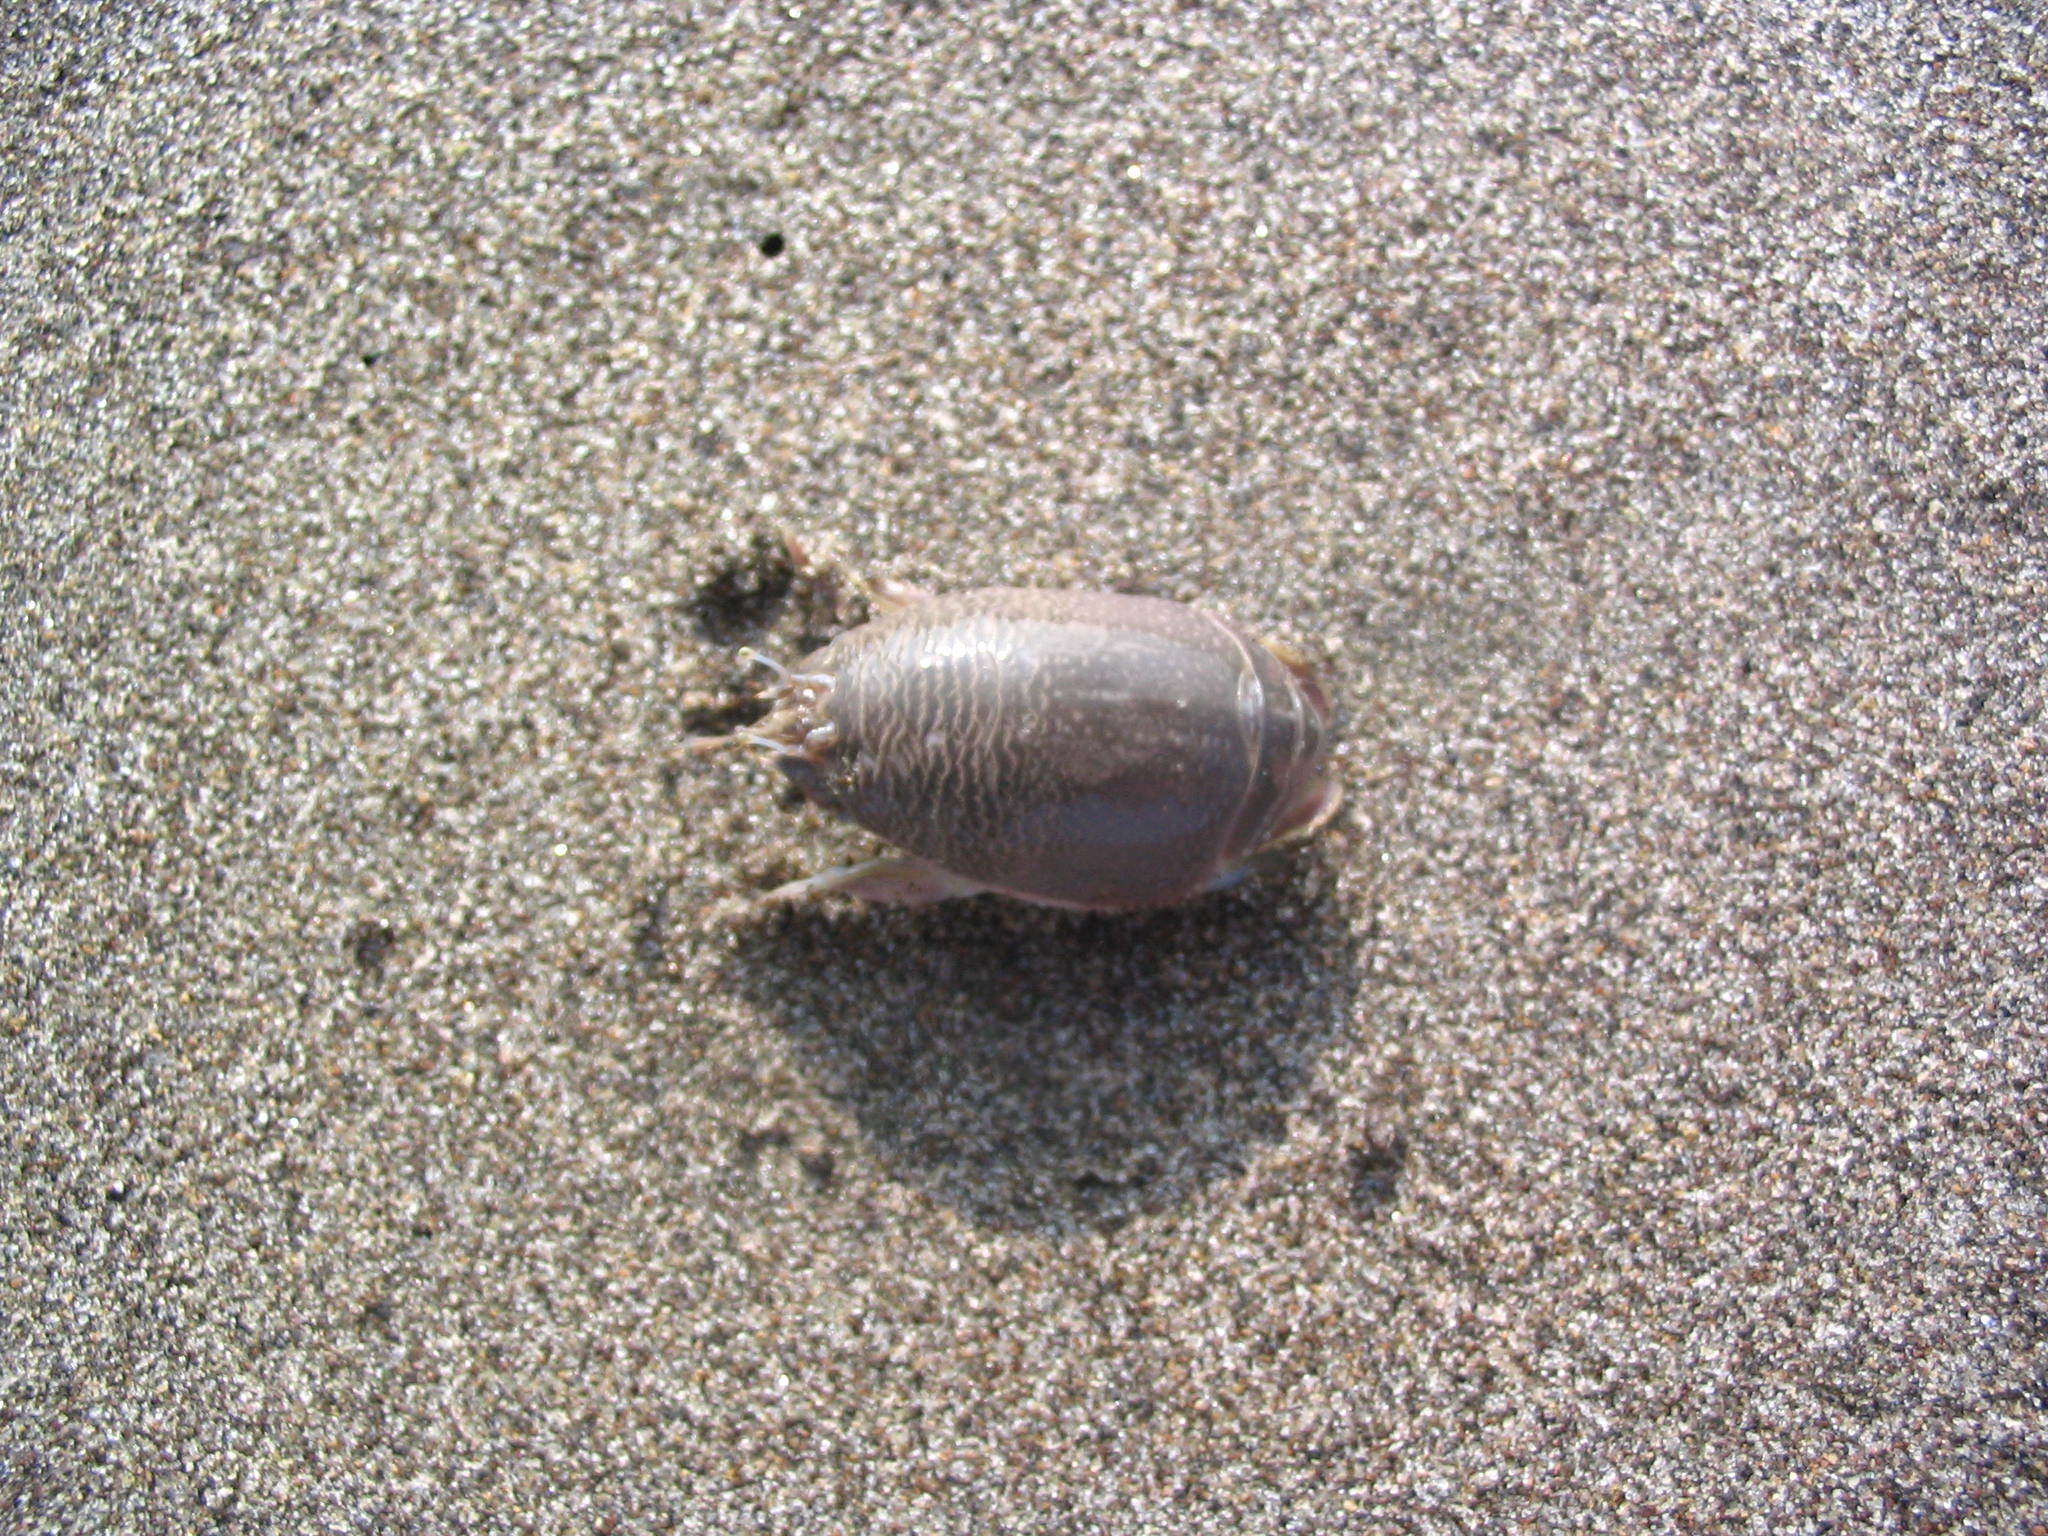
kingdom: Animalia
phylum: Arthropoda
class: Malacostraca
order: Decapoda
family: Hippidae
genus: Emerita
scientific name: Emerita analoga
